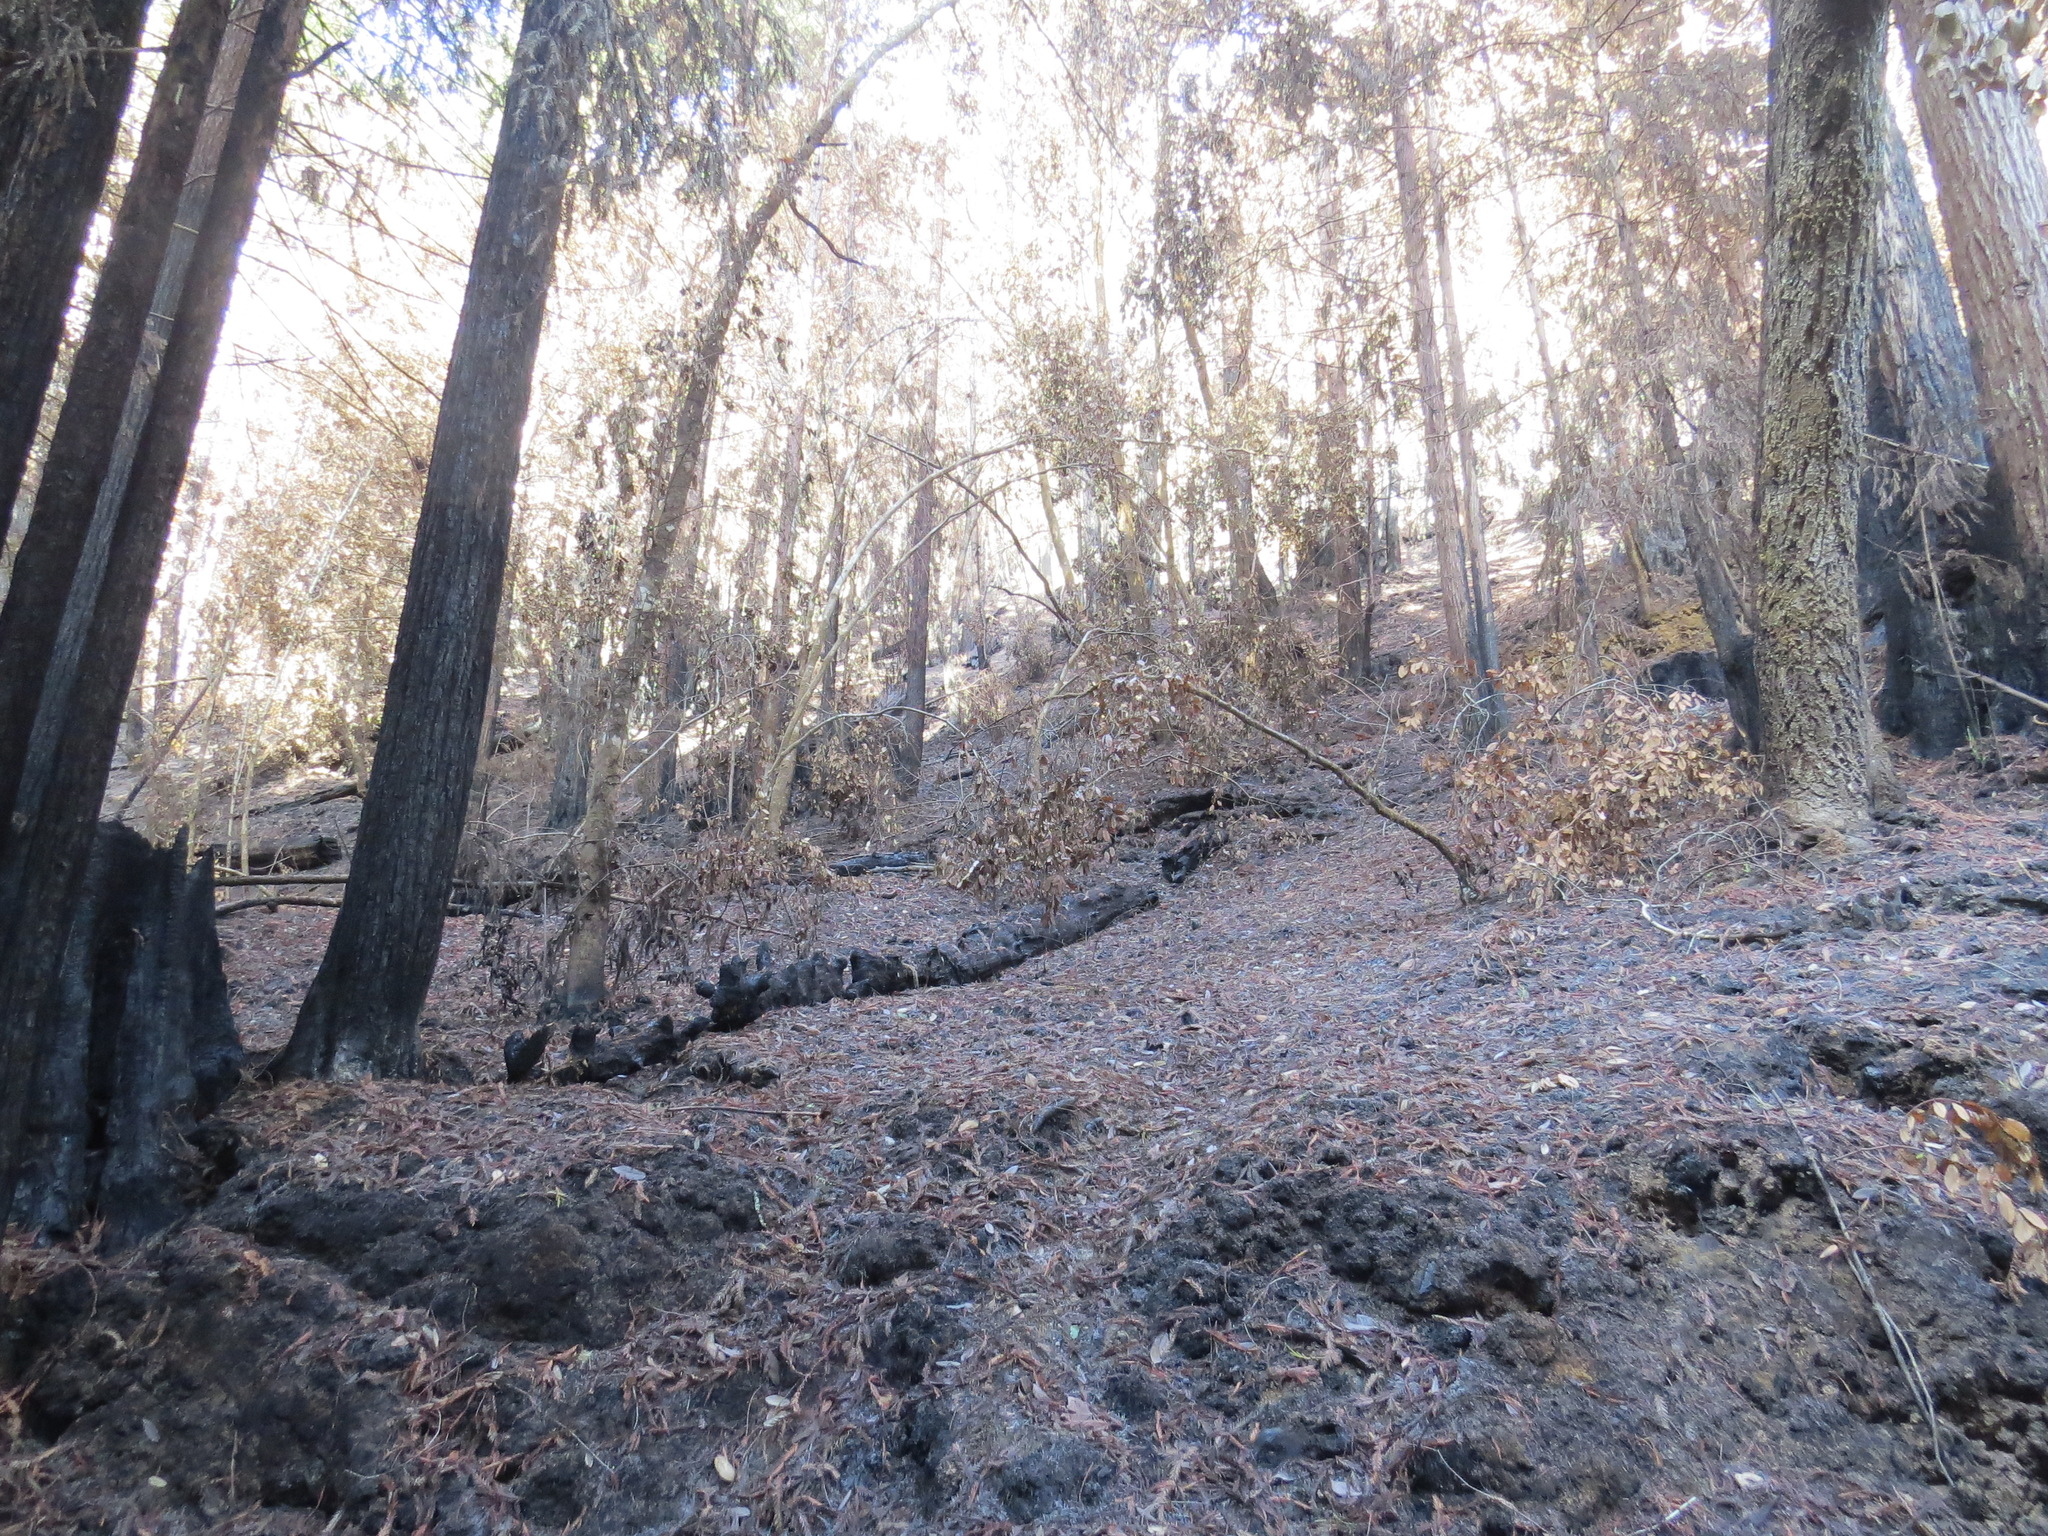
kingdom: Plantae
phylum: Tracheophyta
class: Pinopsida
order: Pinales
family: Cupressaceae
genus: Sequoia
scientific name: Sequoia sempervirens
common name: Coast redwood
